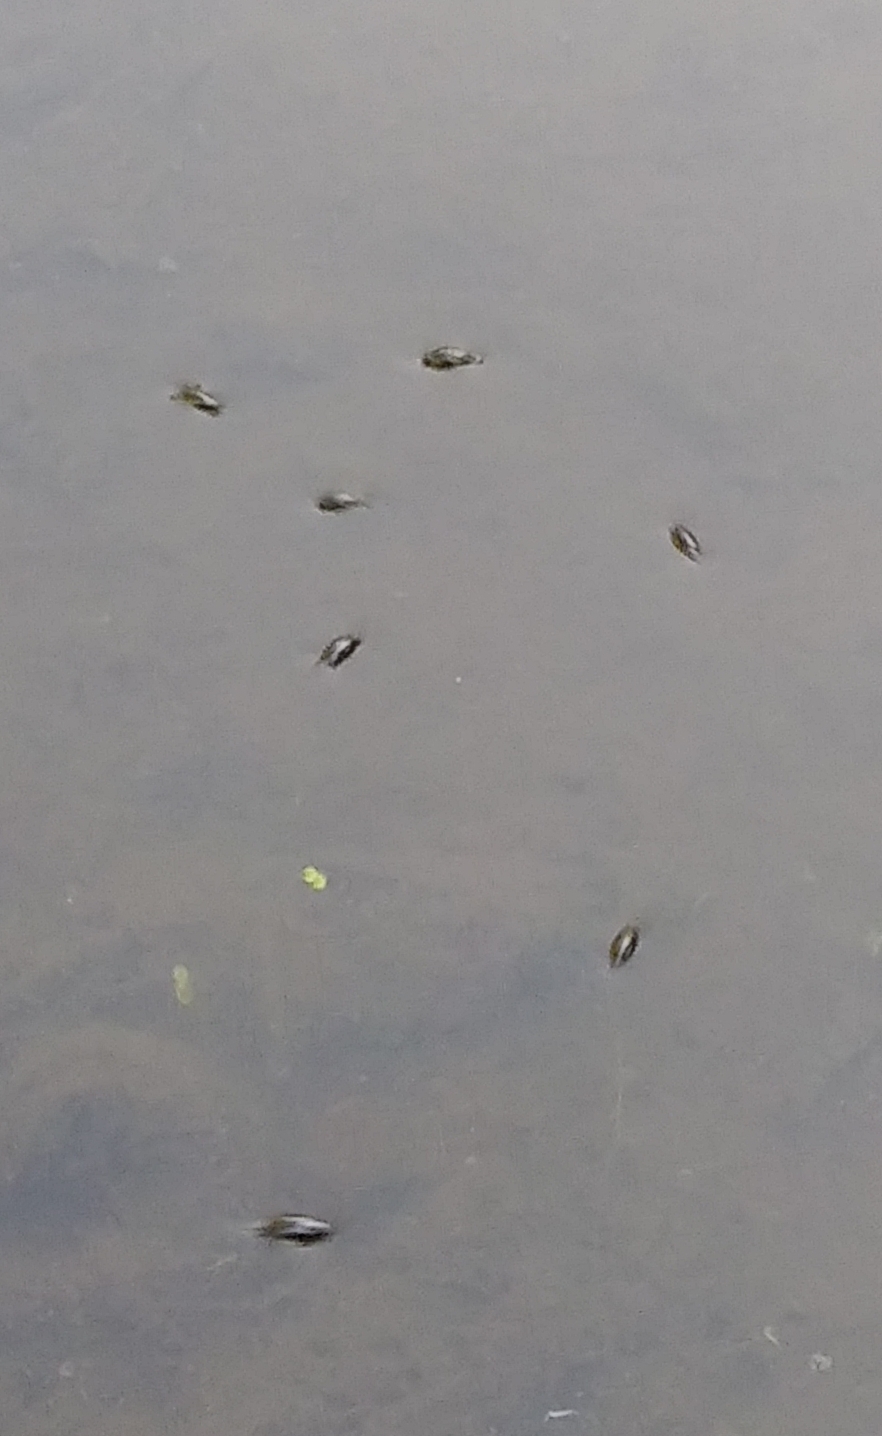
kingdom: Animalia
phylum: Arthropoda
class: Insecta
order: Coleoptera
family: Gyrinidae
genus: Gyrinus
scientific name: Gyrinus
